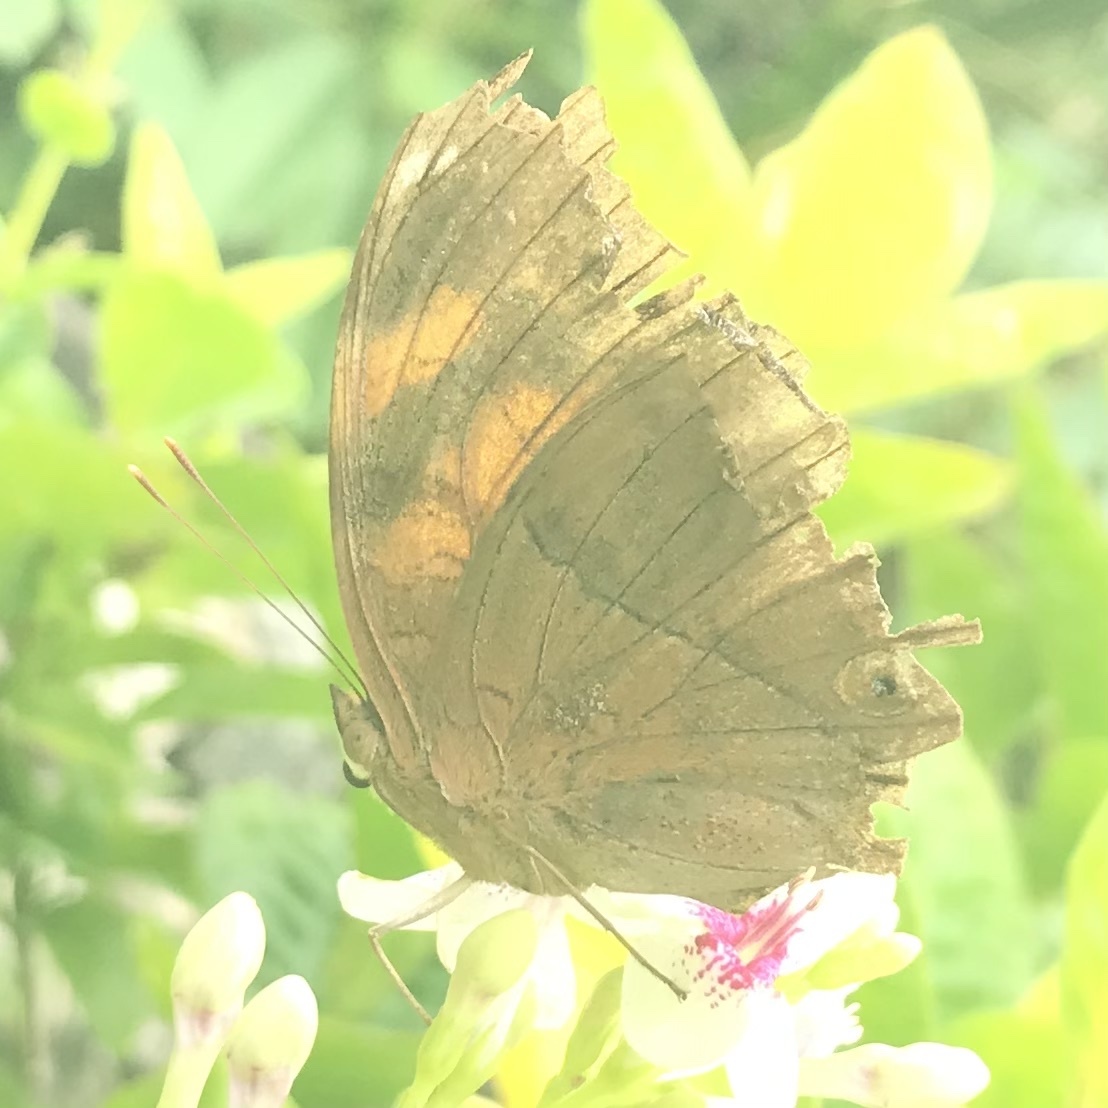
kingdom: Animalia
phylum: Arthropoda
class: Insecta
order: Lepidoptera
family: Nymphalidae
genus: Doleschallia
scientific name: Doleschallia bisaltide
